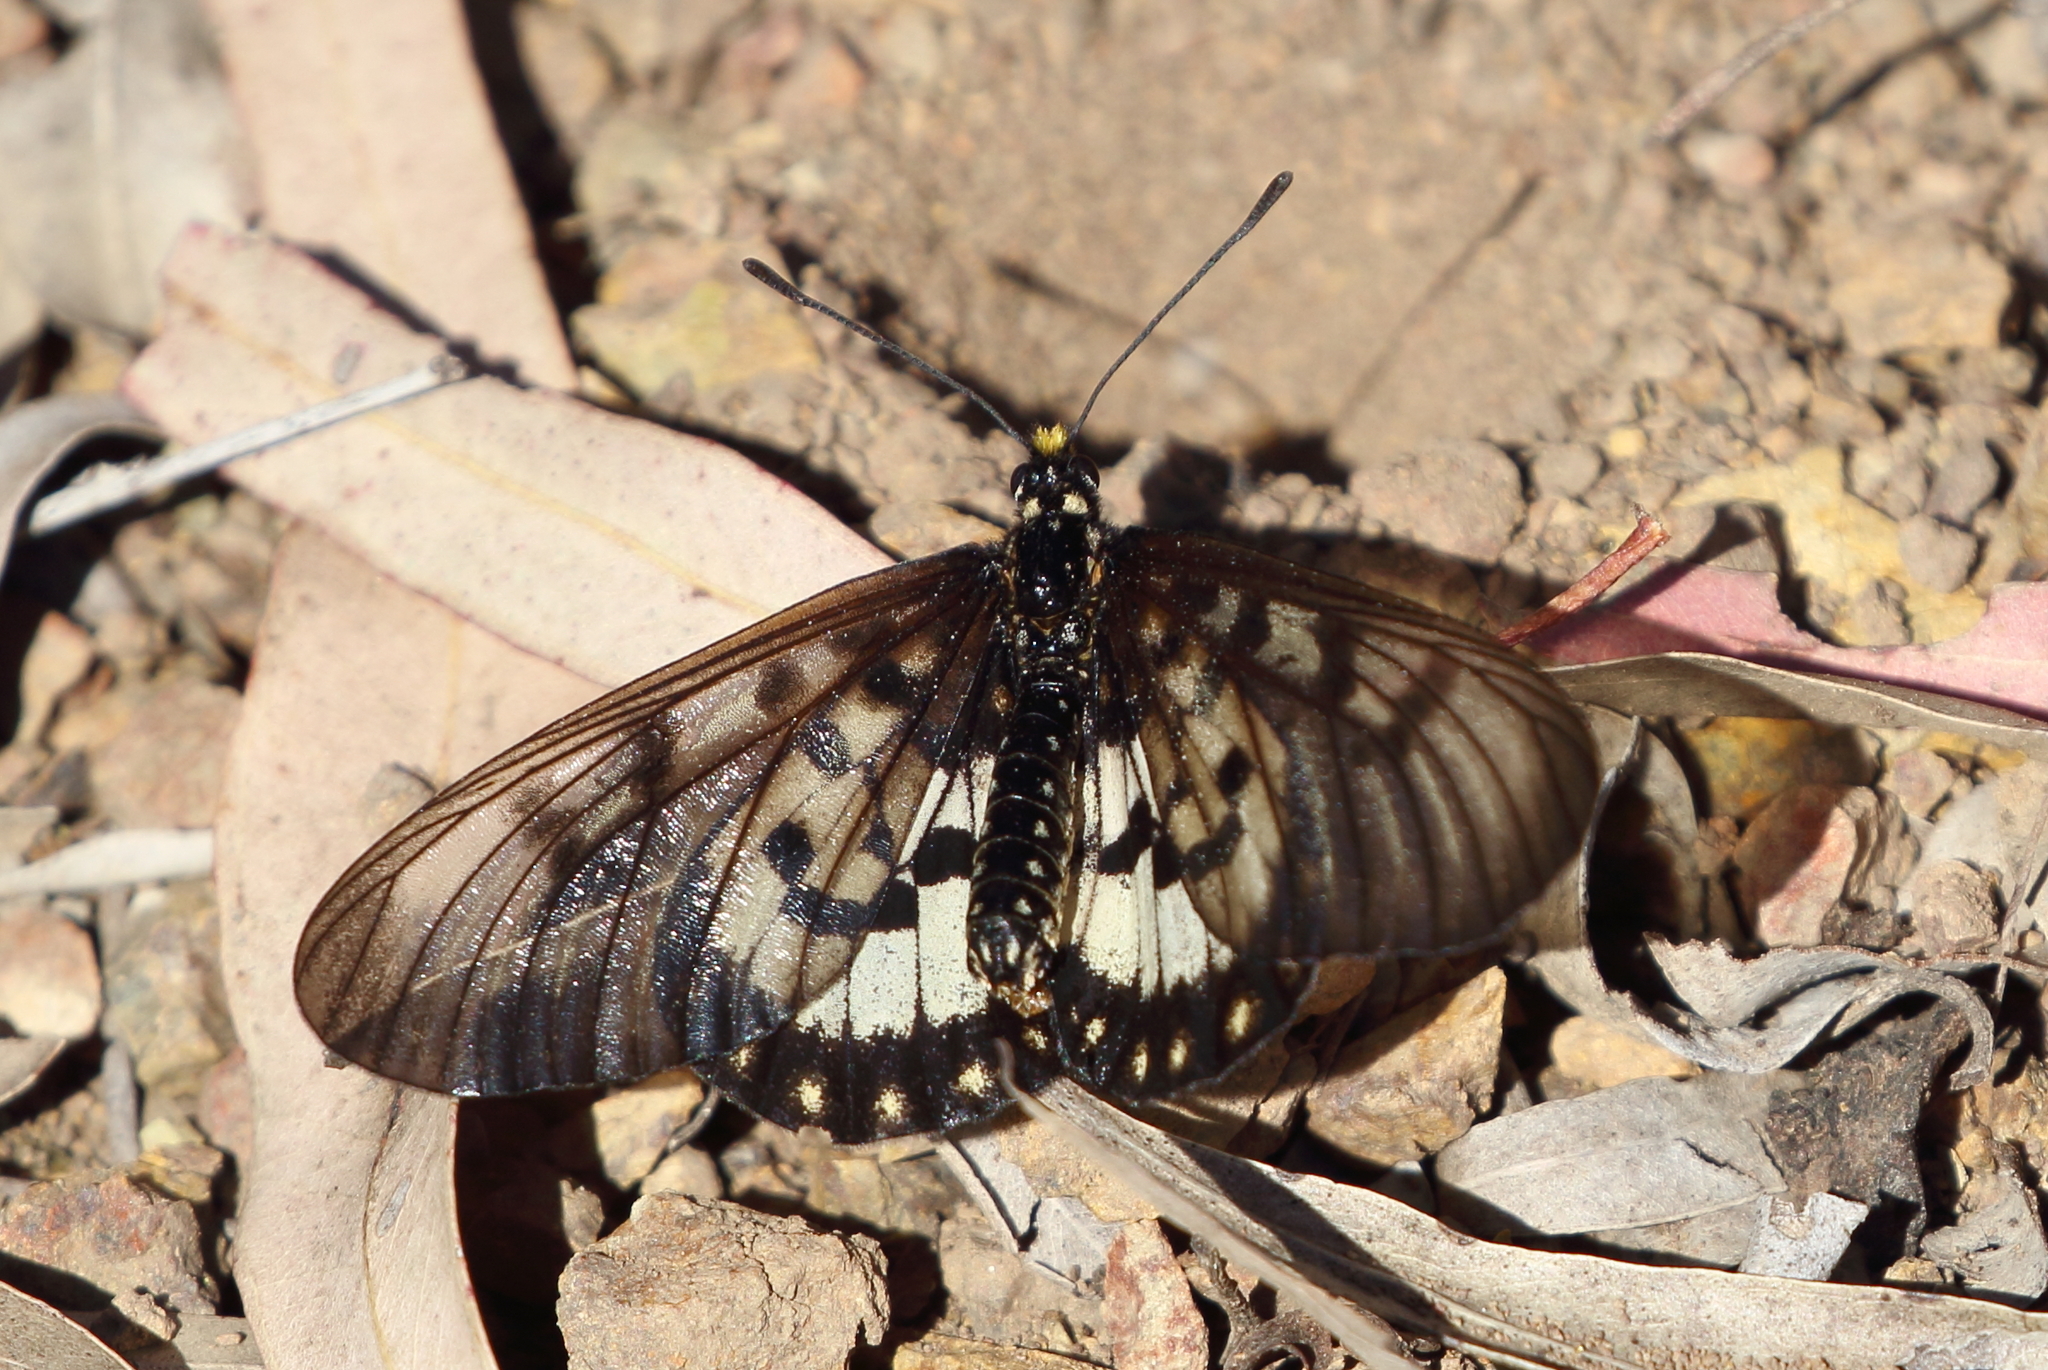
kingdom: Animalia
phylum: Arthropoda
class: Insecta
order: Lepidoptera
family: Nymphalidae
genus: Acraea
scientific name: Acraea andromacha
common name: Glasswing
